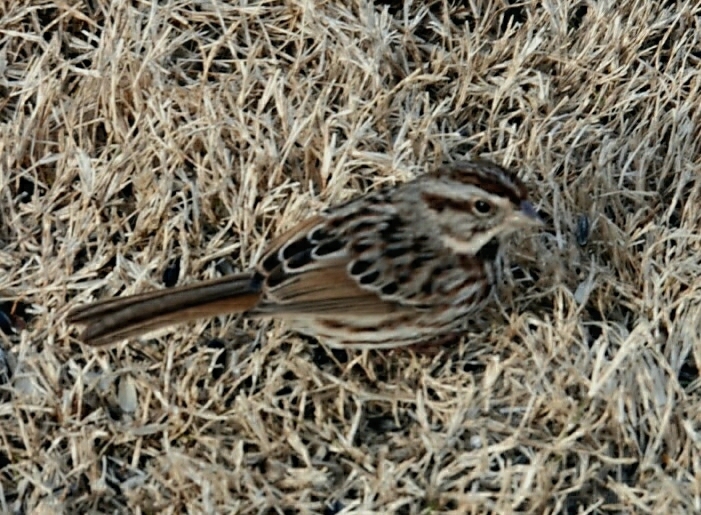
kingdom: Animalia
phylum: Chordata
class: Aves
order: Passeriformes
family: Passerellidae
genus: Melospiza
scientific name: Melospiza melodia
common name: Song sparrow
